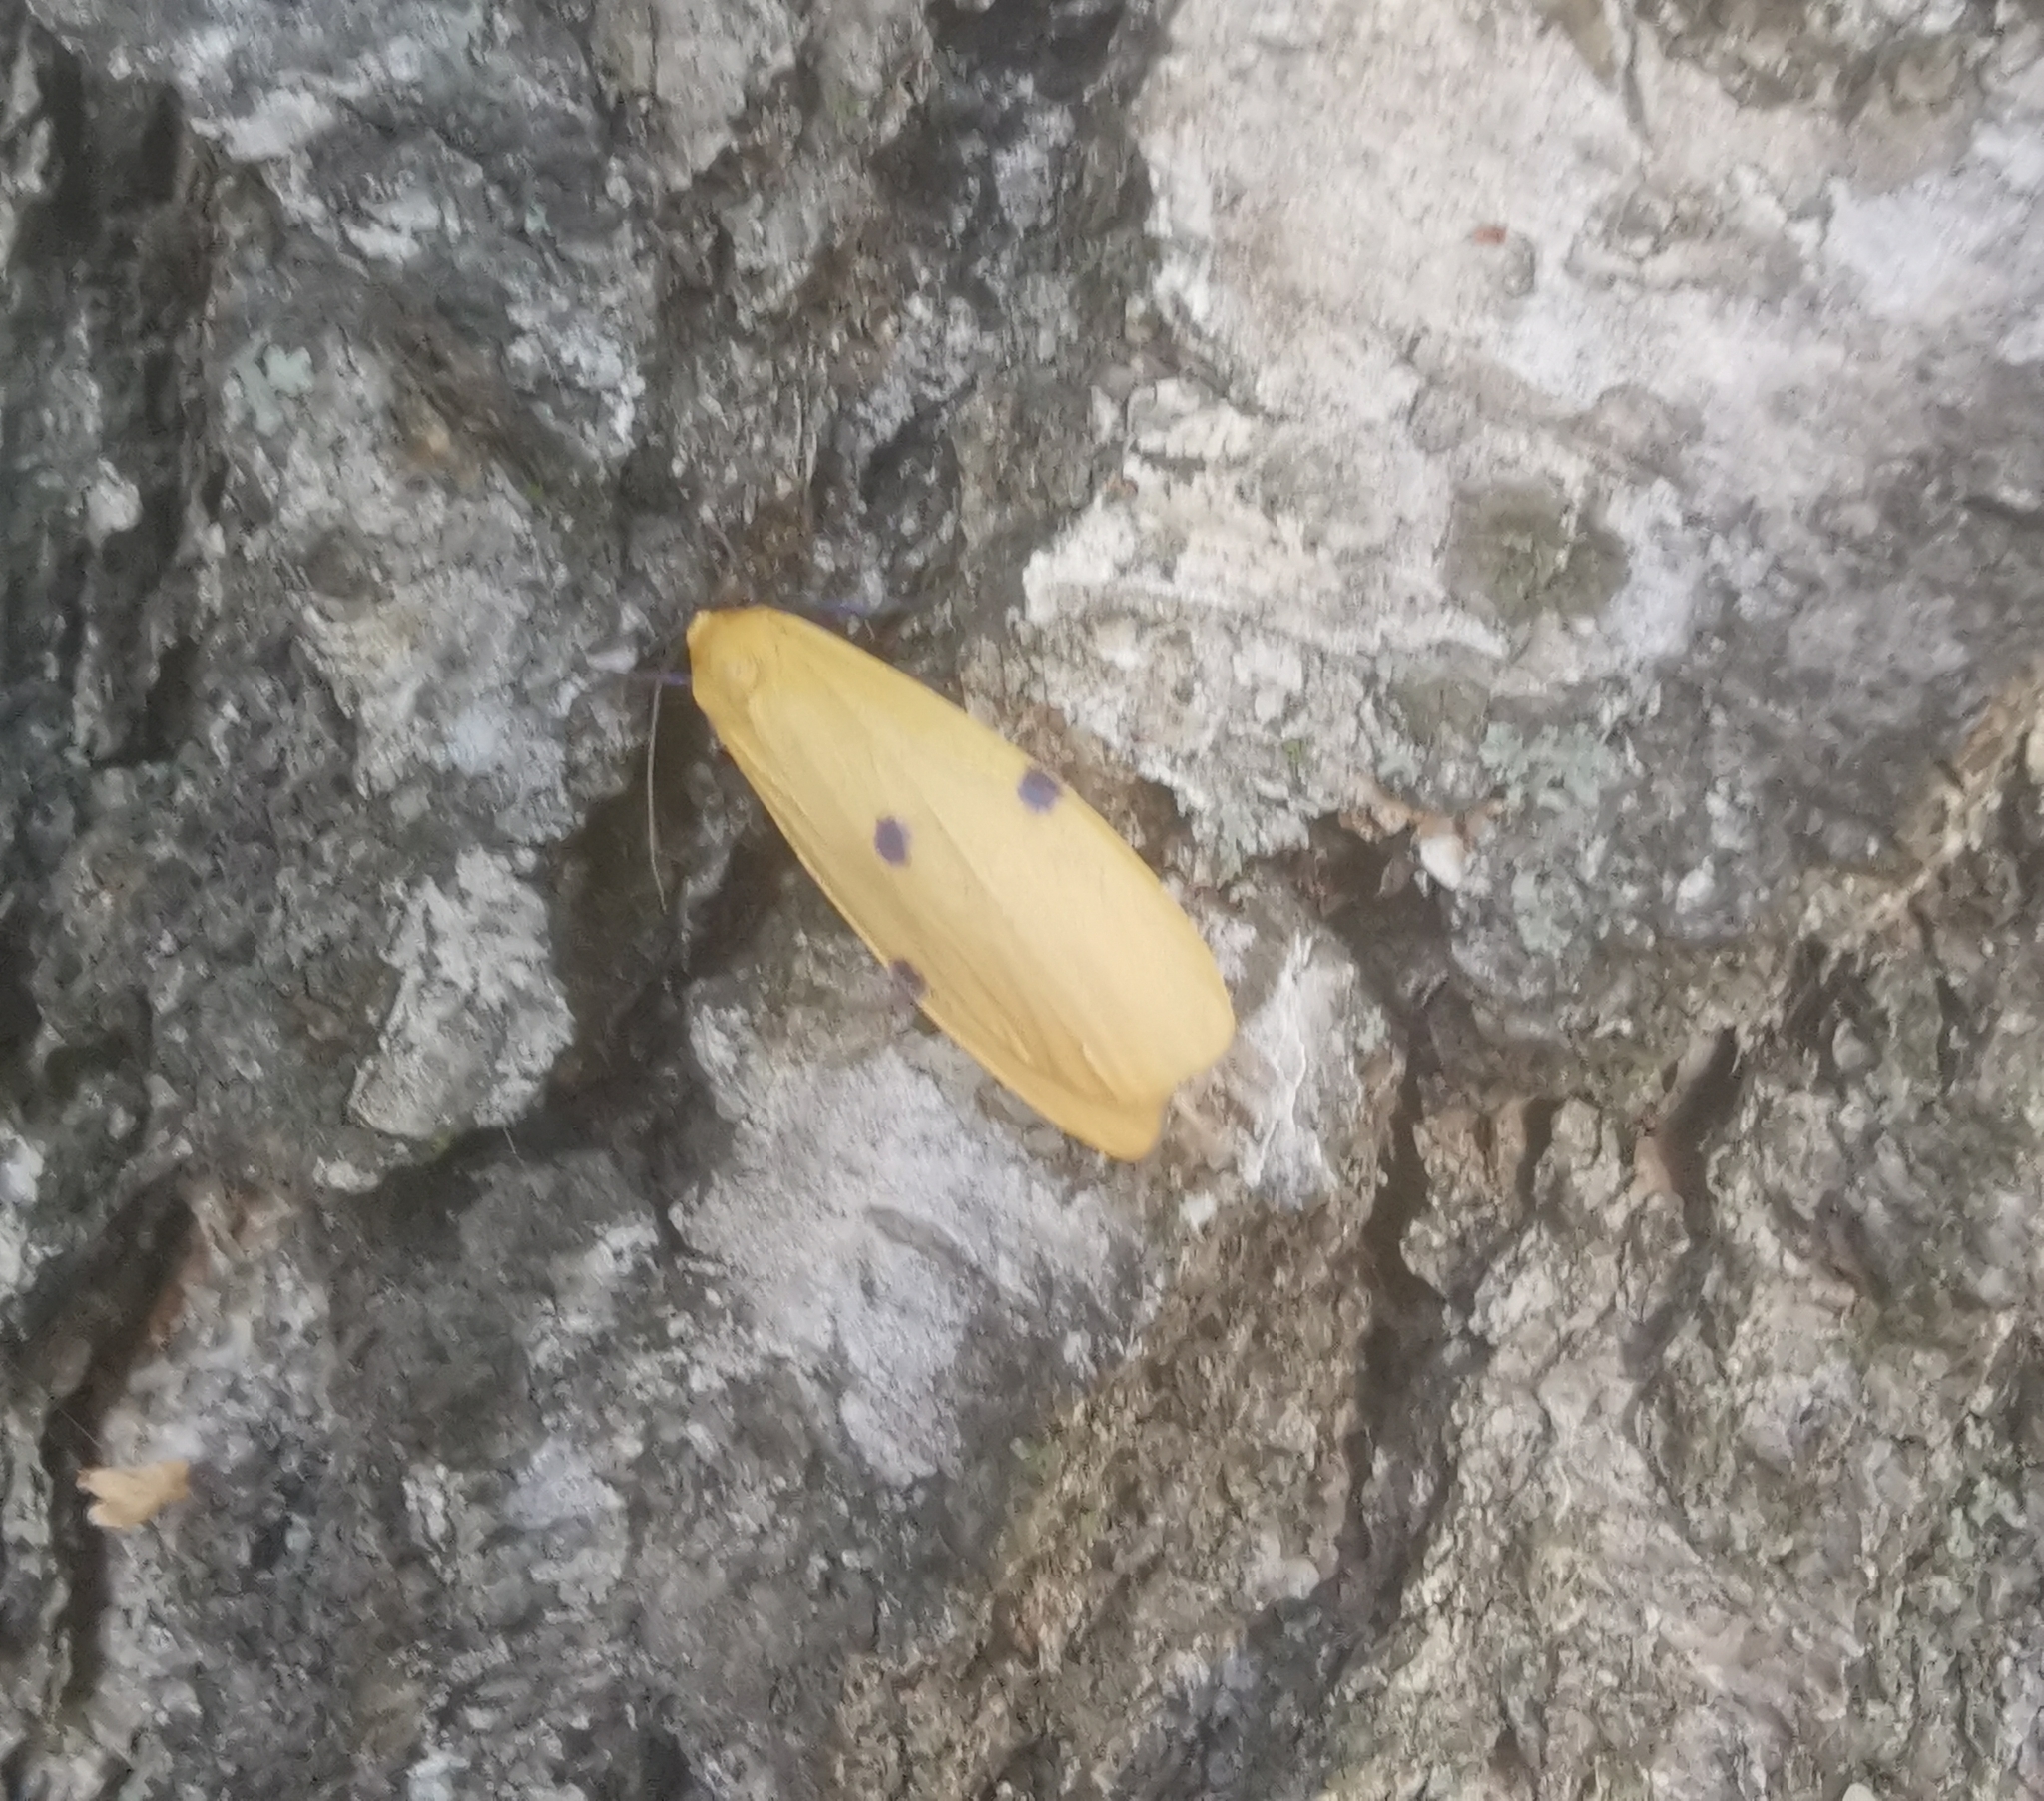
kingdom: Animalia
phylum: Arthropoda
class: Insecta
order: Lepidoptera
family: Erebidae
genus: Lithosia
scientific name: Lithosia quadra
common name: Four-spotted footman
